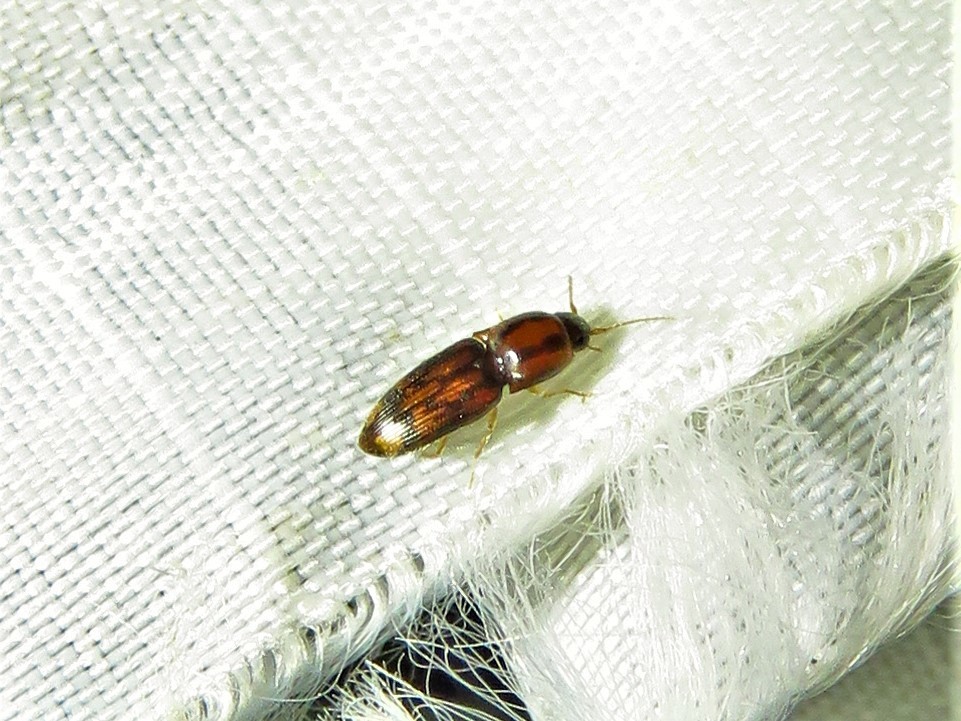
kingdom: Animalia
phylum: Arthropoda
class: Insecta
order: Coleoptera
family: Elateridae
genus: Monocrepidius
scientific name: Monocrepidius bellus
